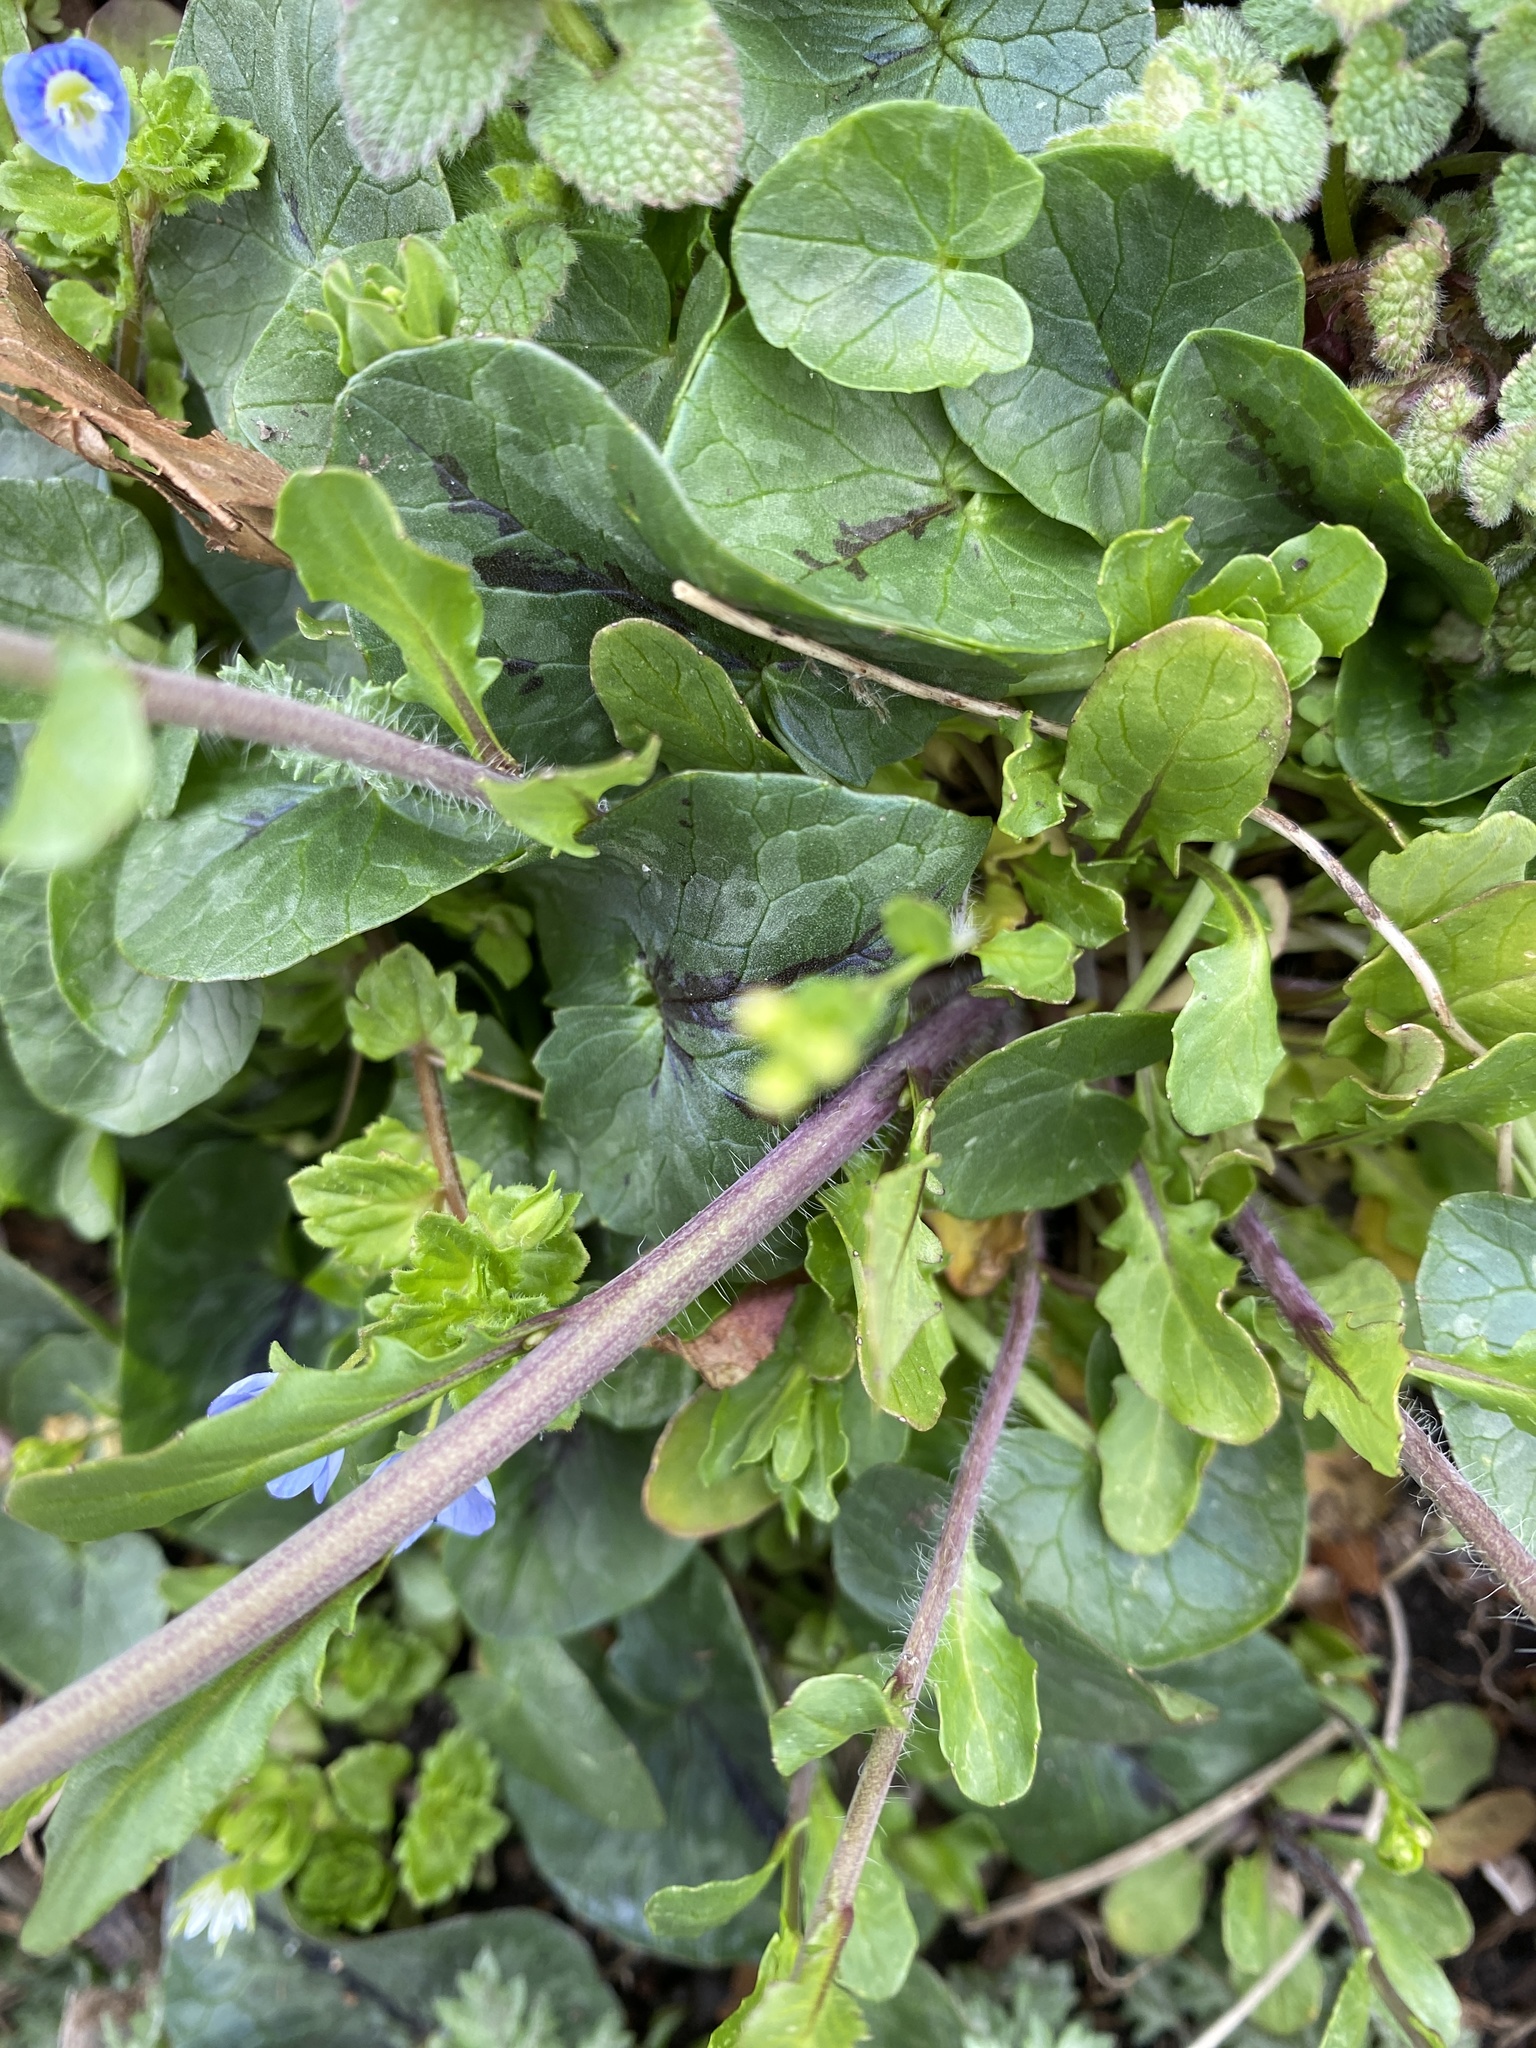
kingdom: Plantae
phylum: Tracheophyta
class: Magnoliopsida
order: Brassicales
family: Brassicaceae
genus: Mummenhoffia
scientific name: Mummenhoffia alliacea
